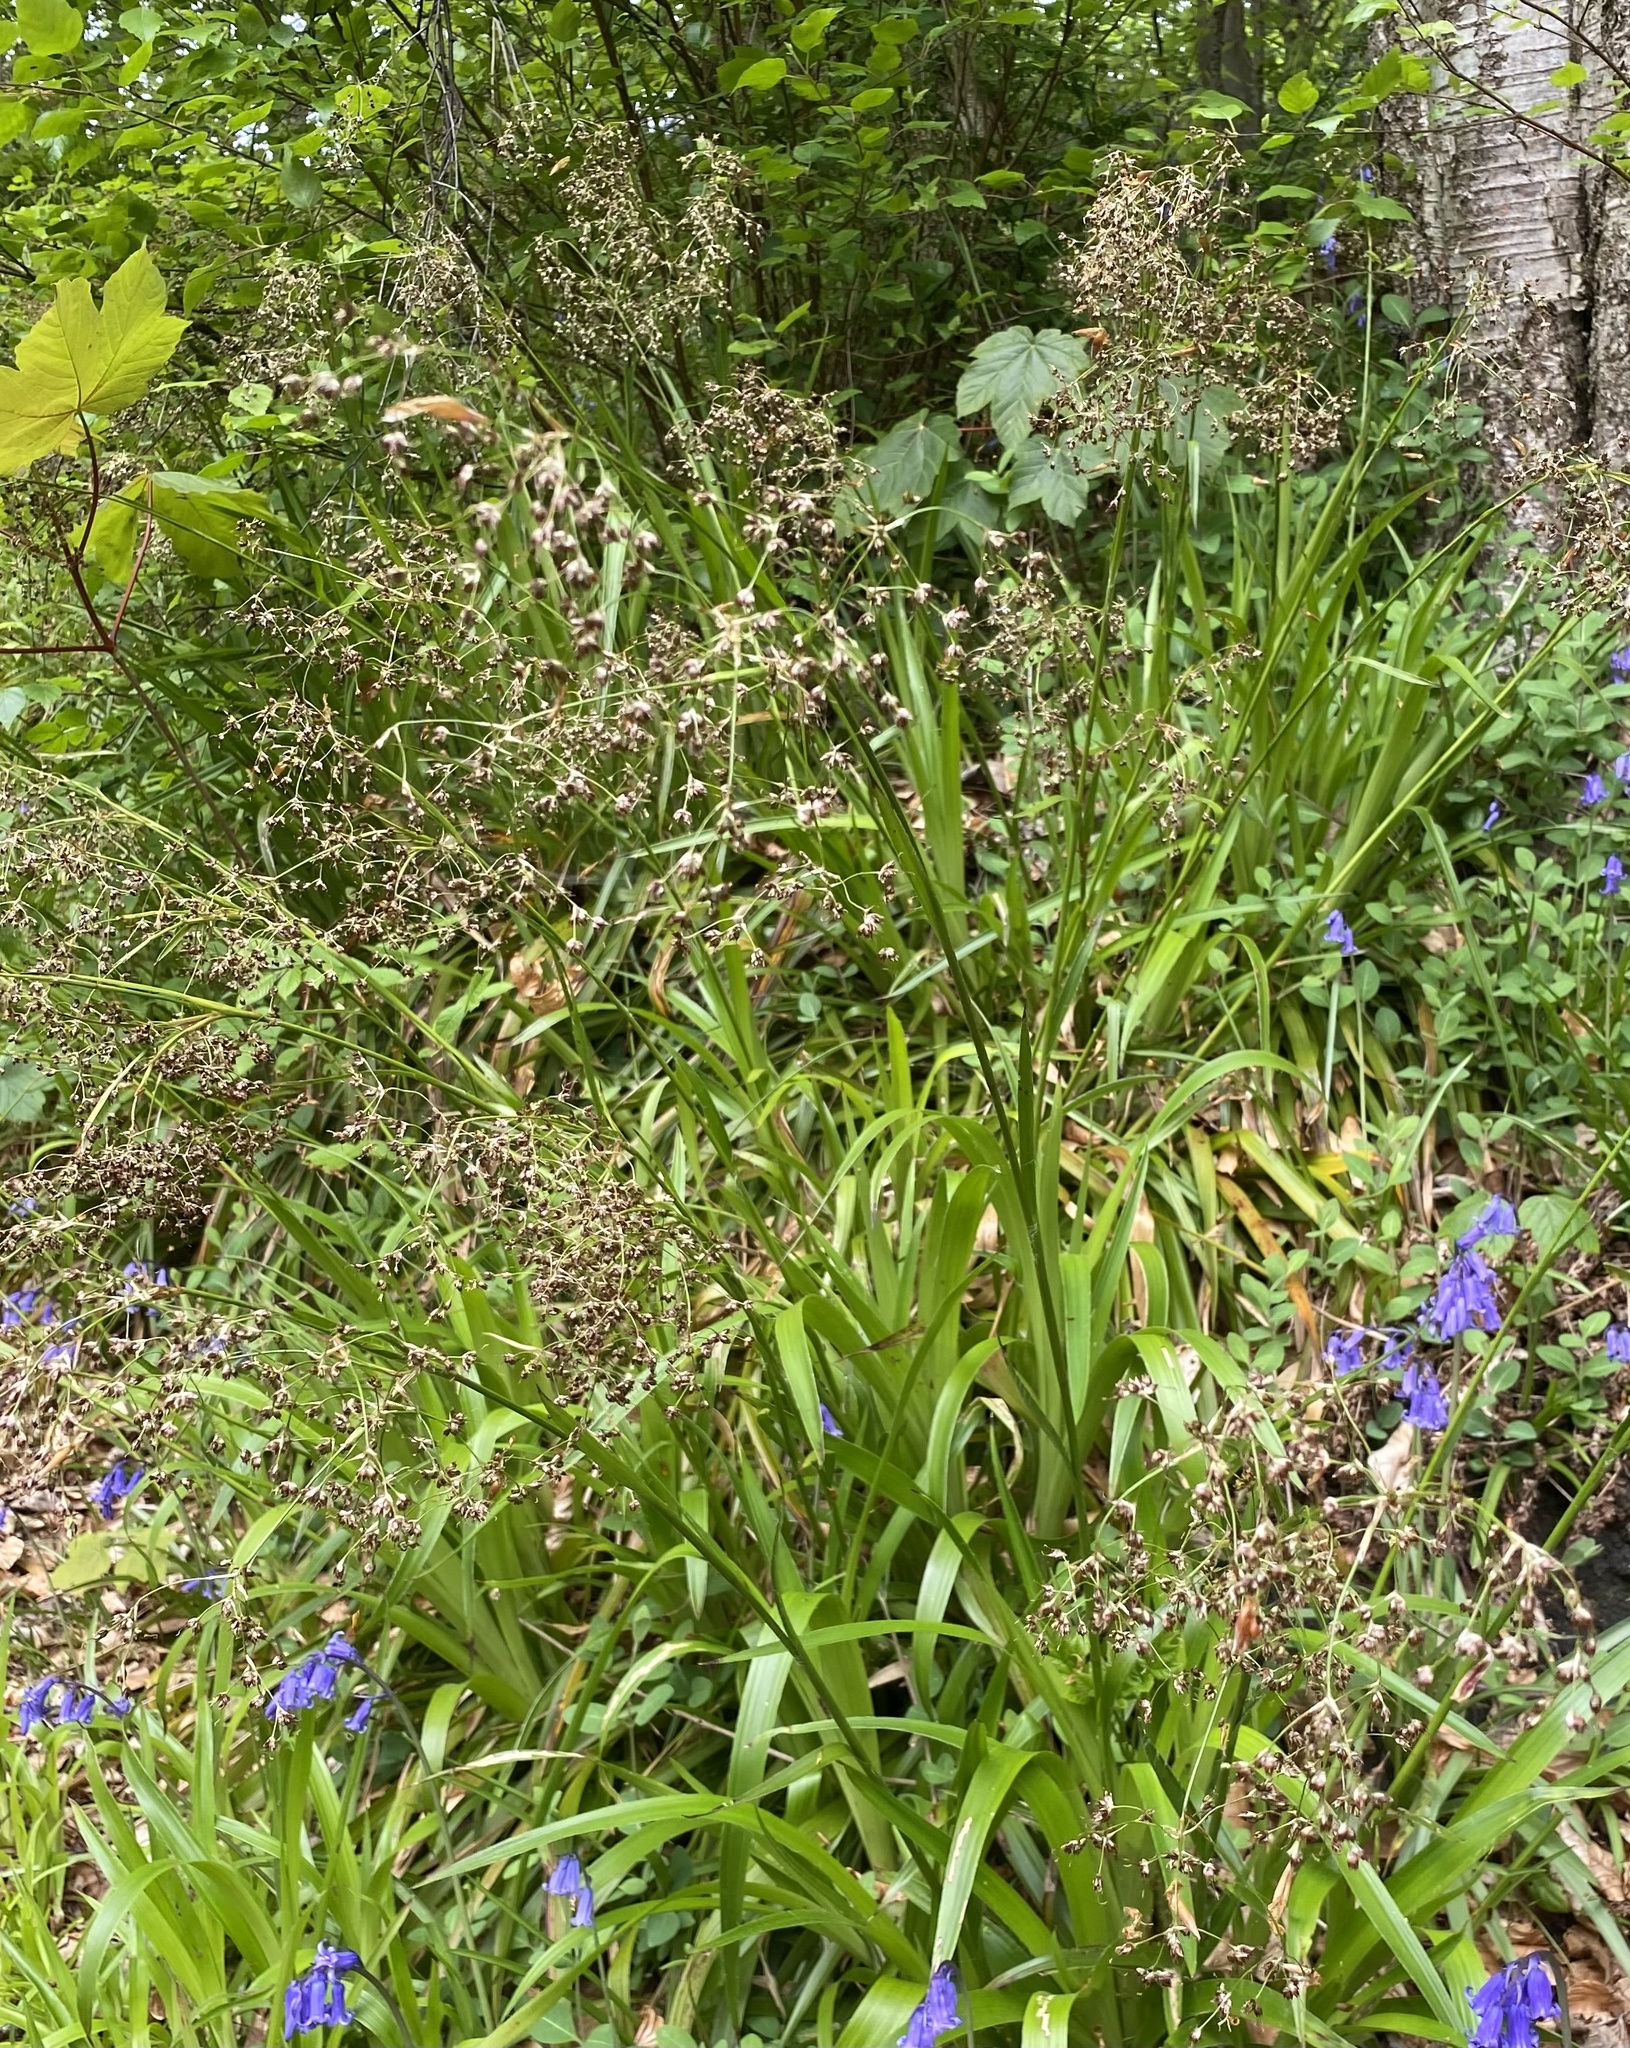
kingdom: Plantae
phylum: Tracheophyta
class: Liliopsida
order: Poales
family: Juncaceae
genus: Luzula
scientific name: Luzula sylvatica
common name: Great wood-rush
